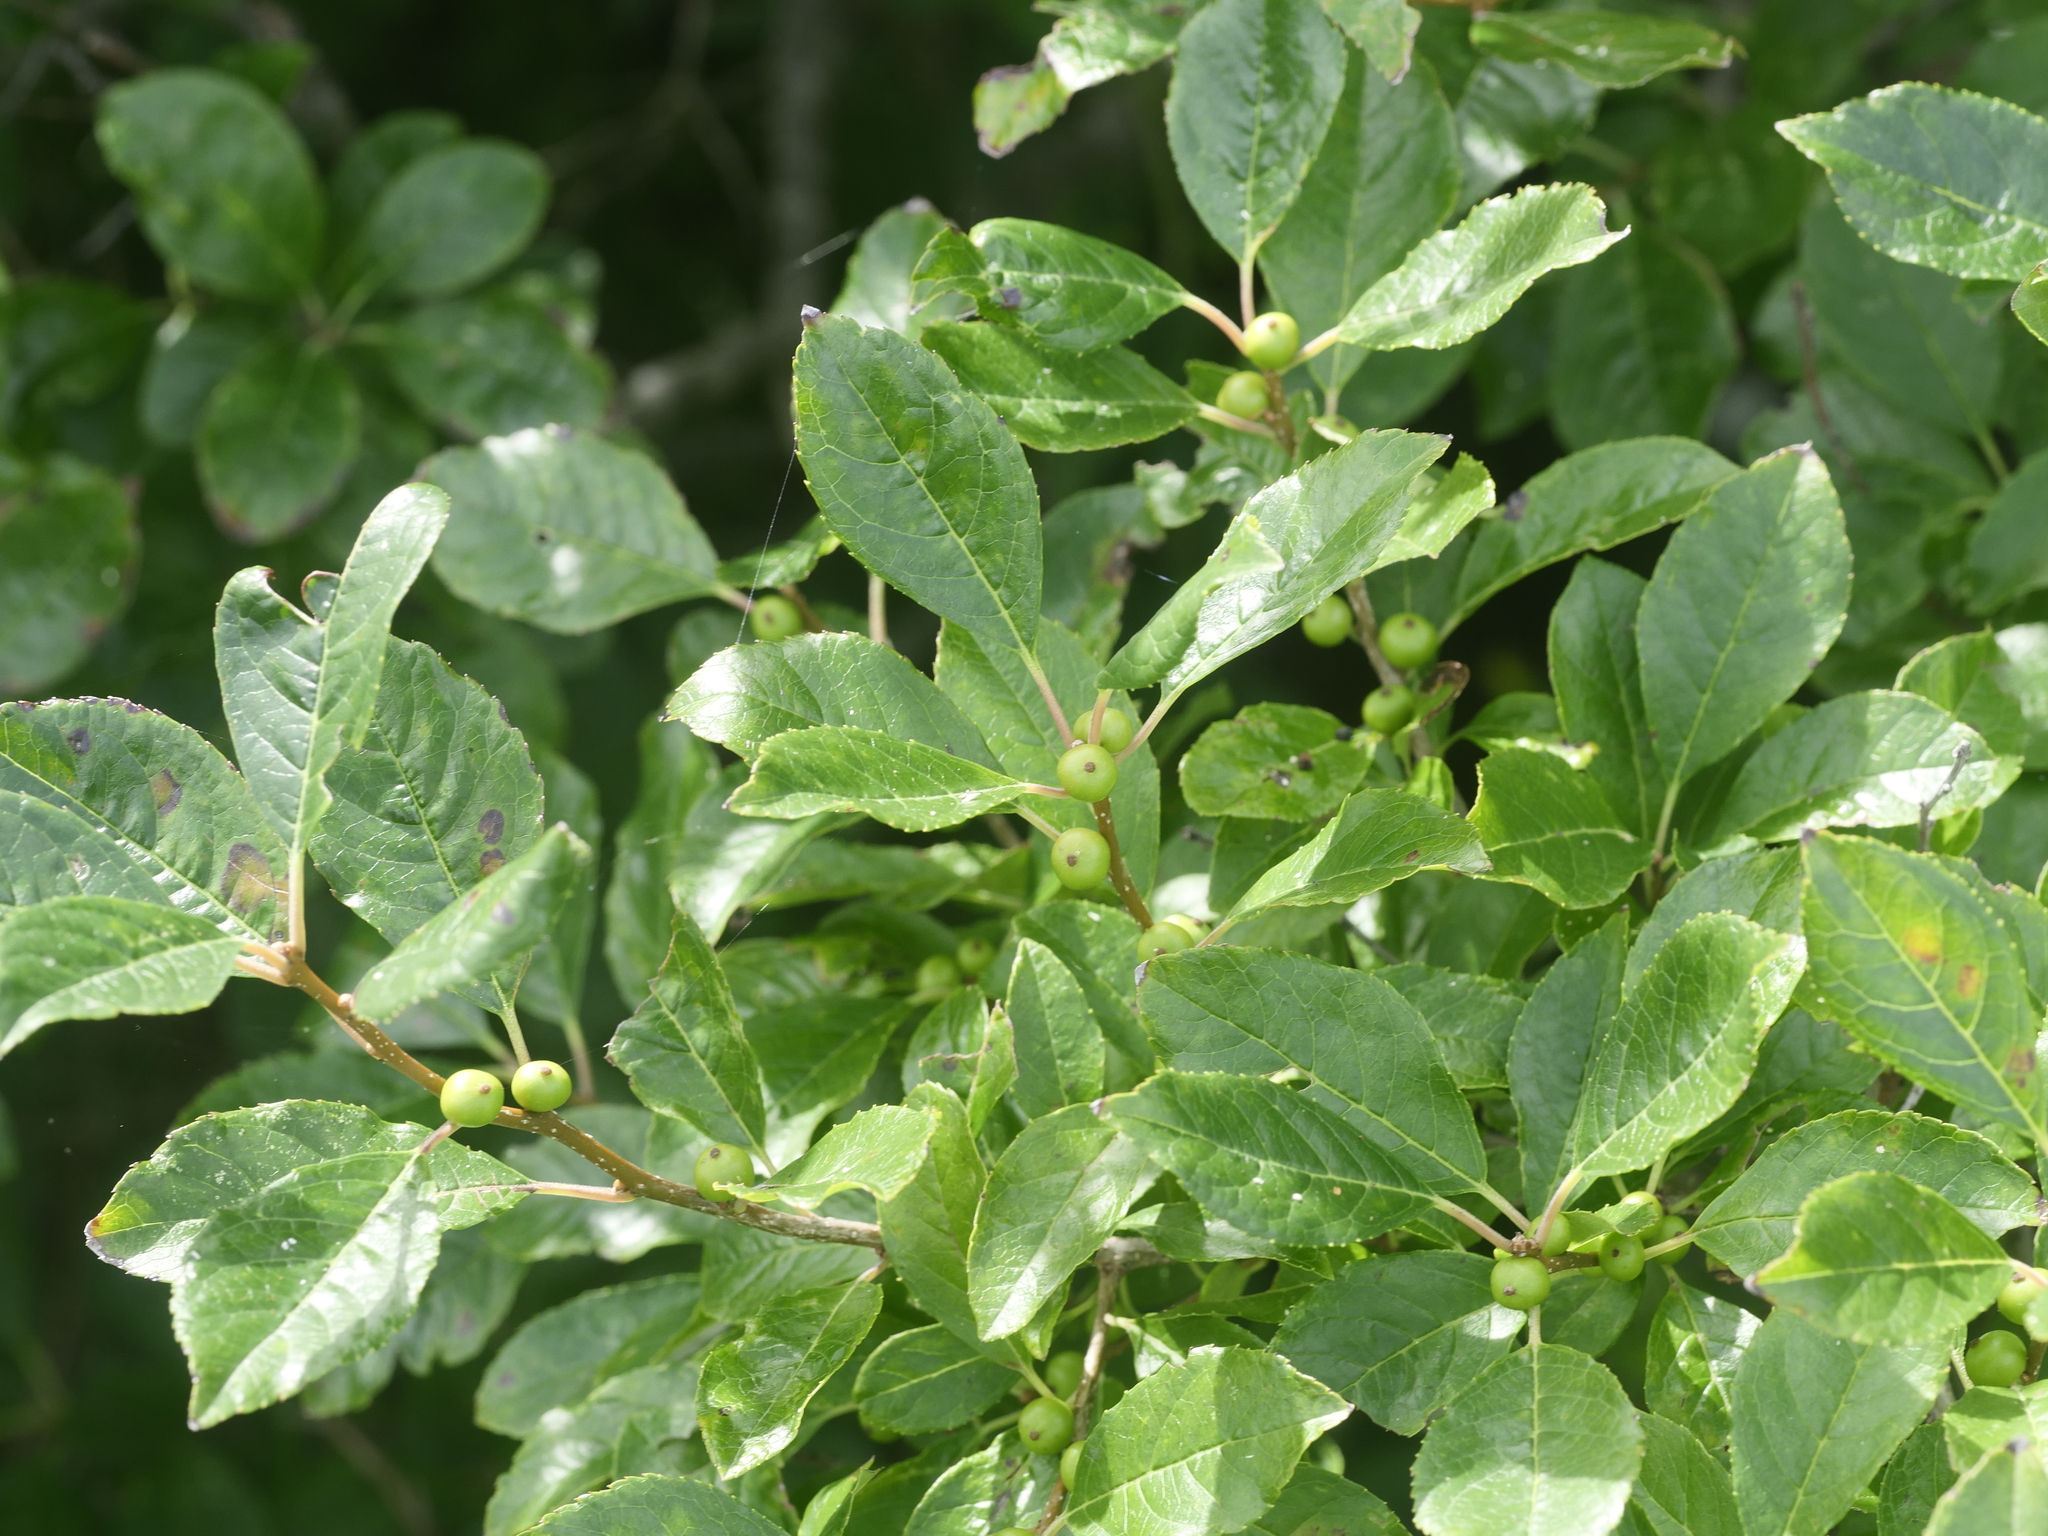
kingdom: Plantae
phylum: Tracheophyta
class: Magnoliopsida
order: Aquifoliales
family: Aquifoliaceae
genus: Ilex
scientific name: Ilex verticillata
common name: Virginia winterberry
